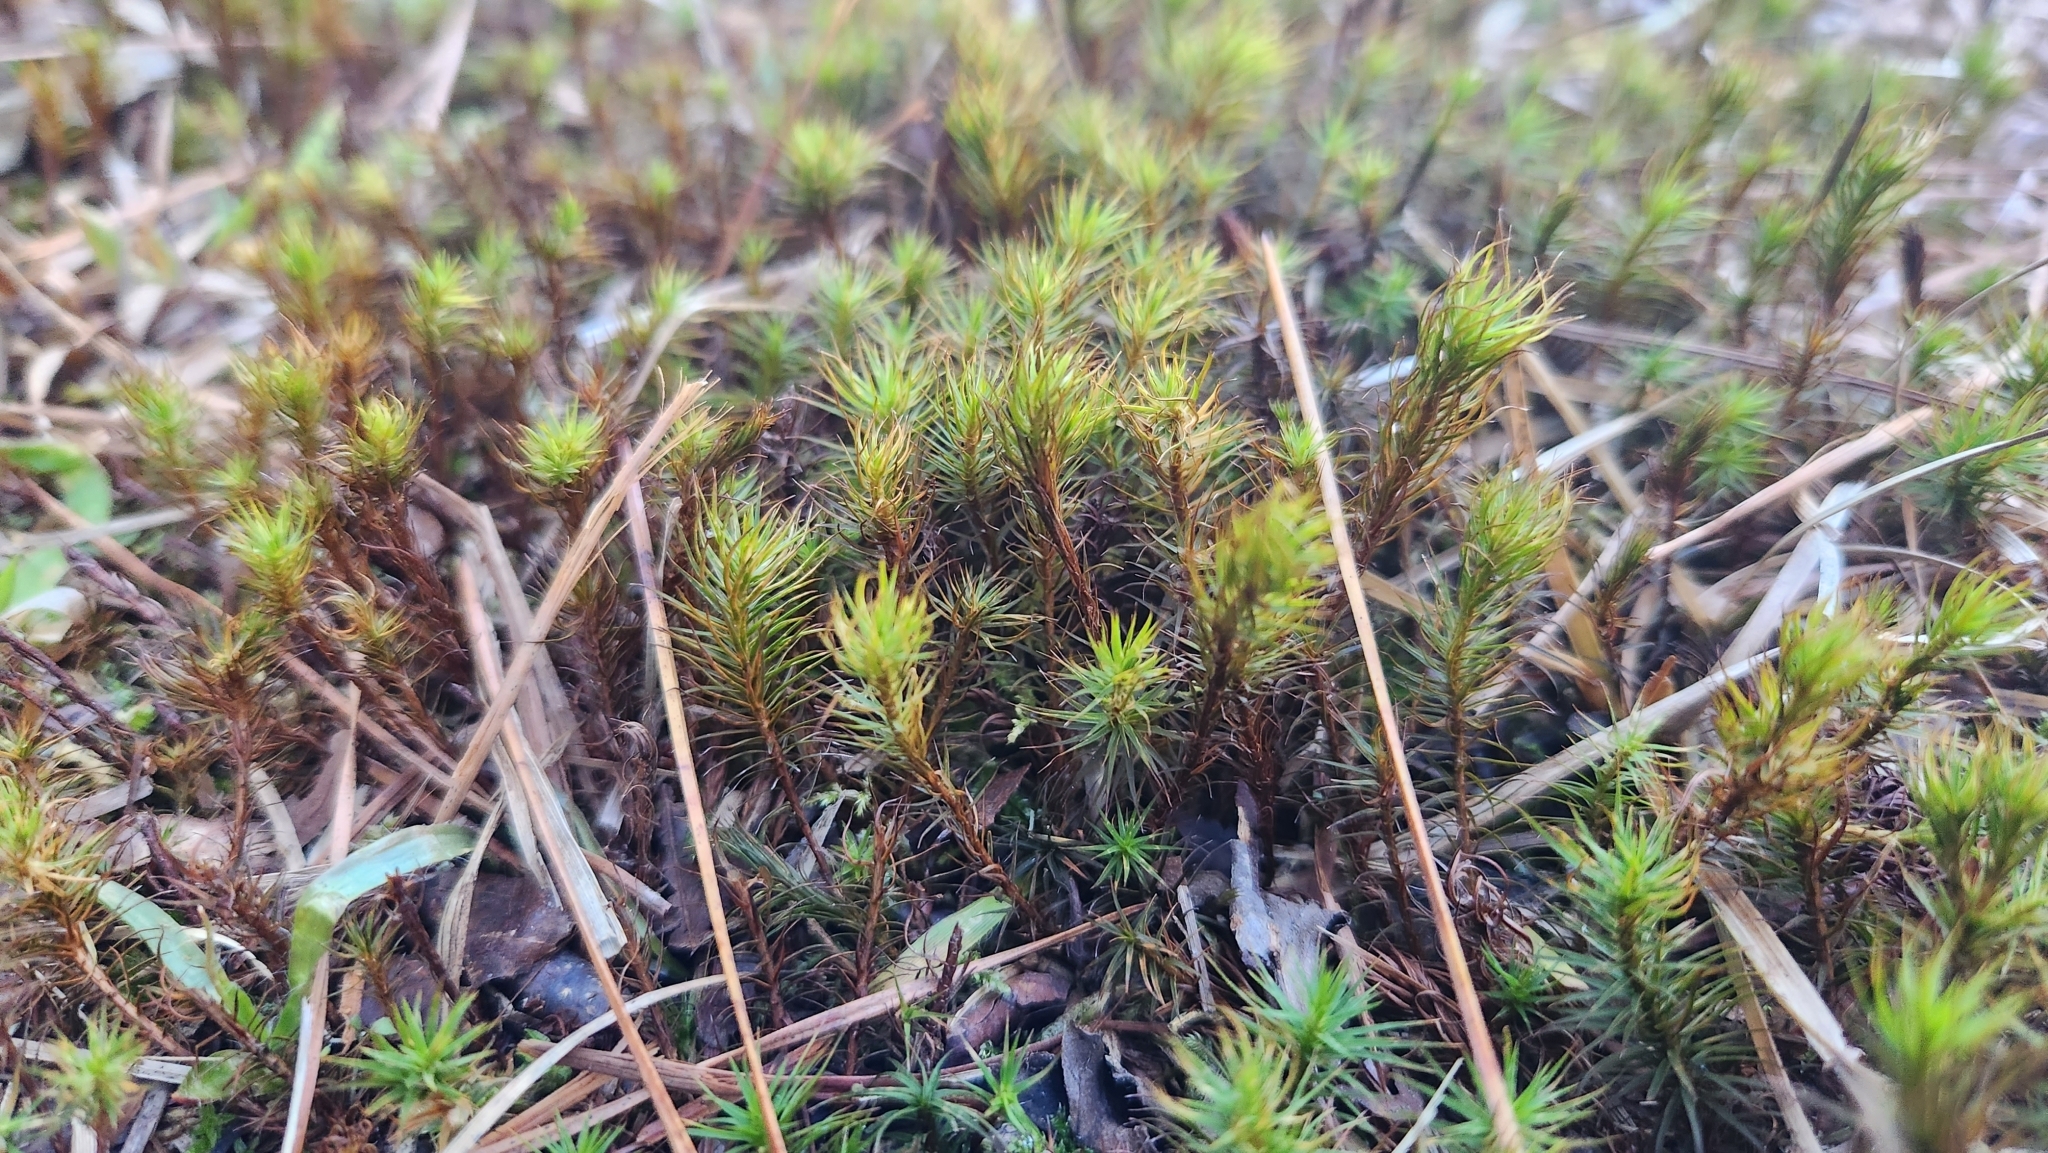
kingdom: Plantae
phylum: Bryophyta
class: Polytrichopsida
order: Polytrichales
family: Polytrichaceae
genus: Polytrichum
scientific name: Polytrichum commune
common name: Common haircap
